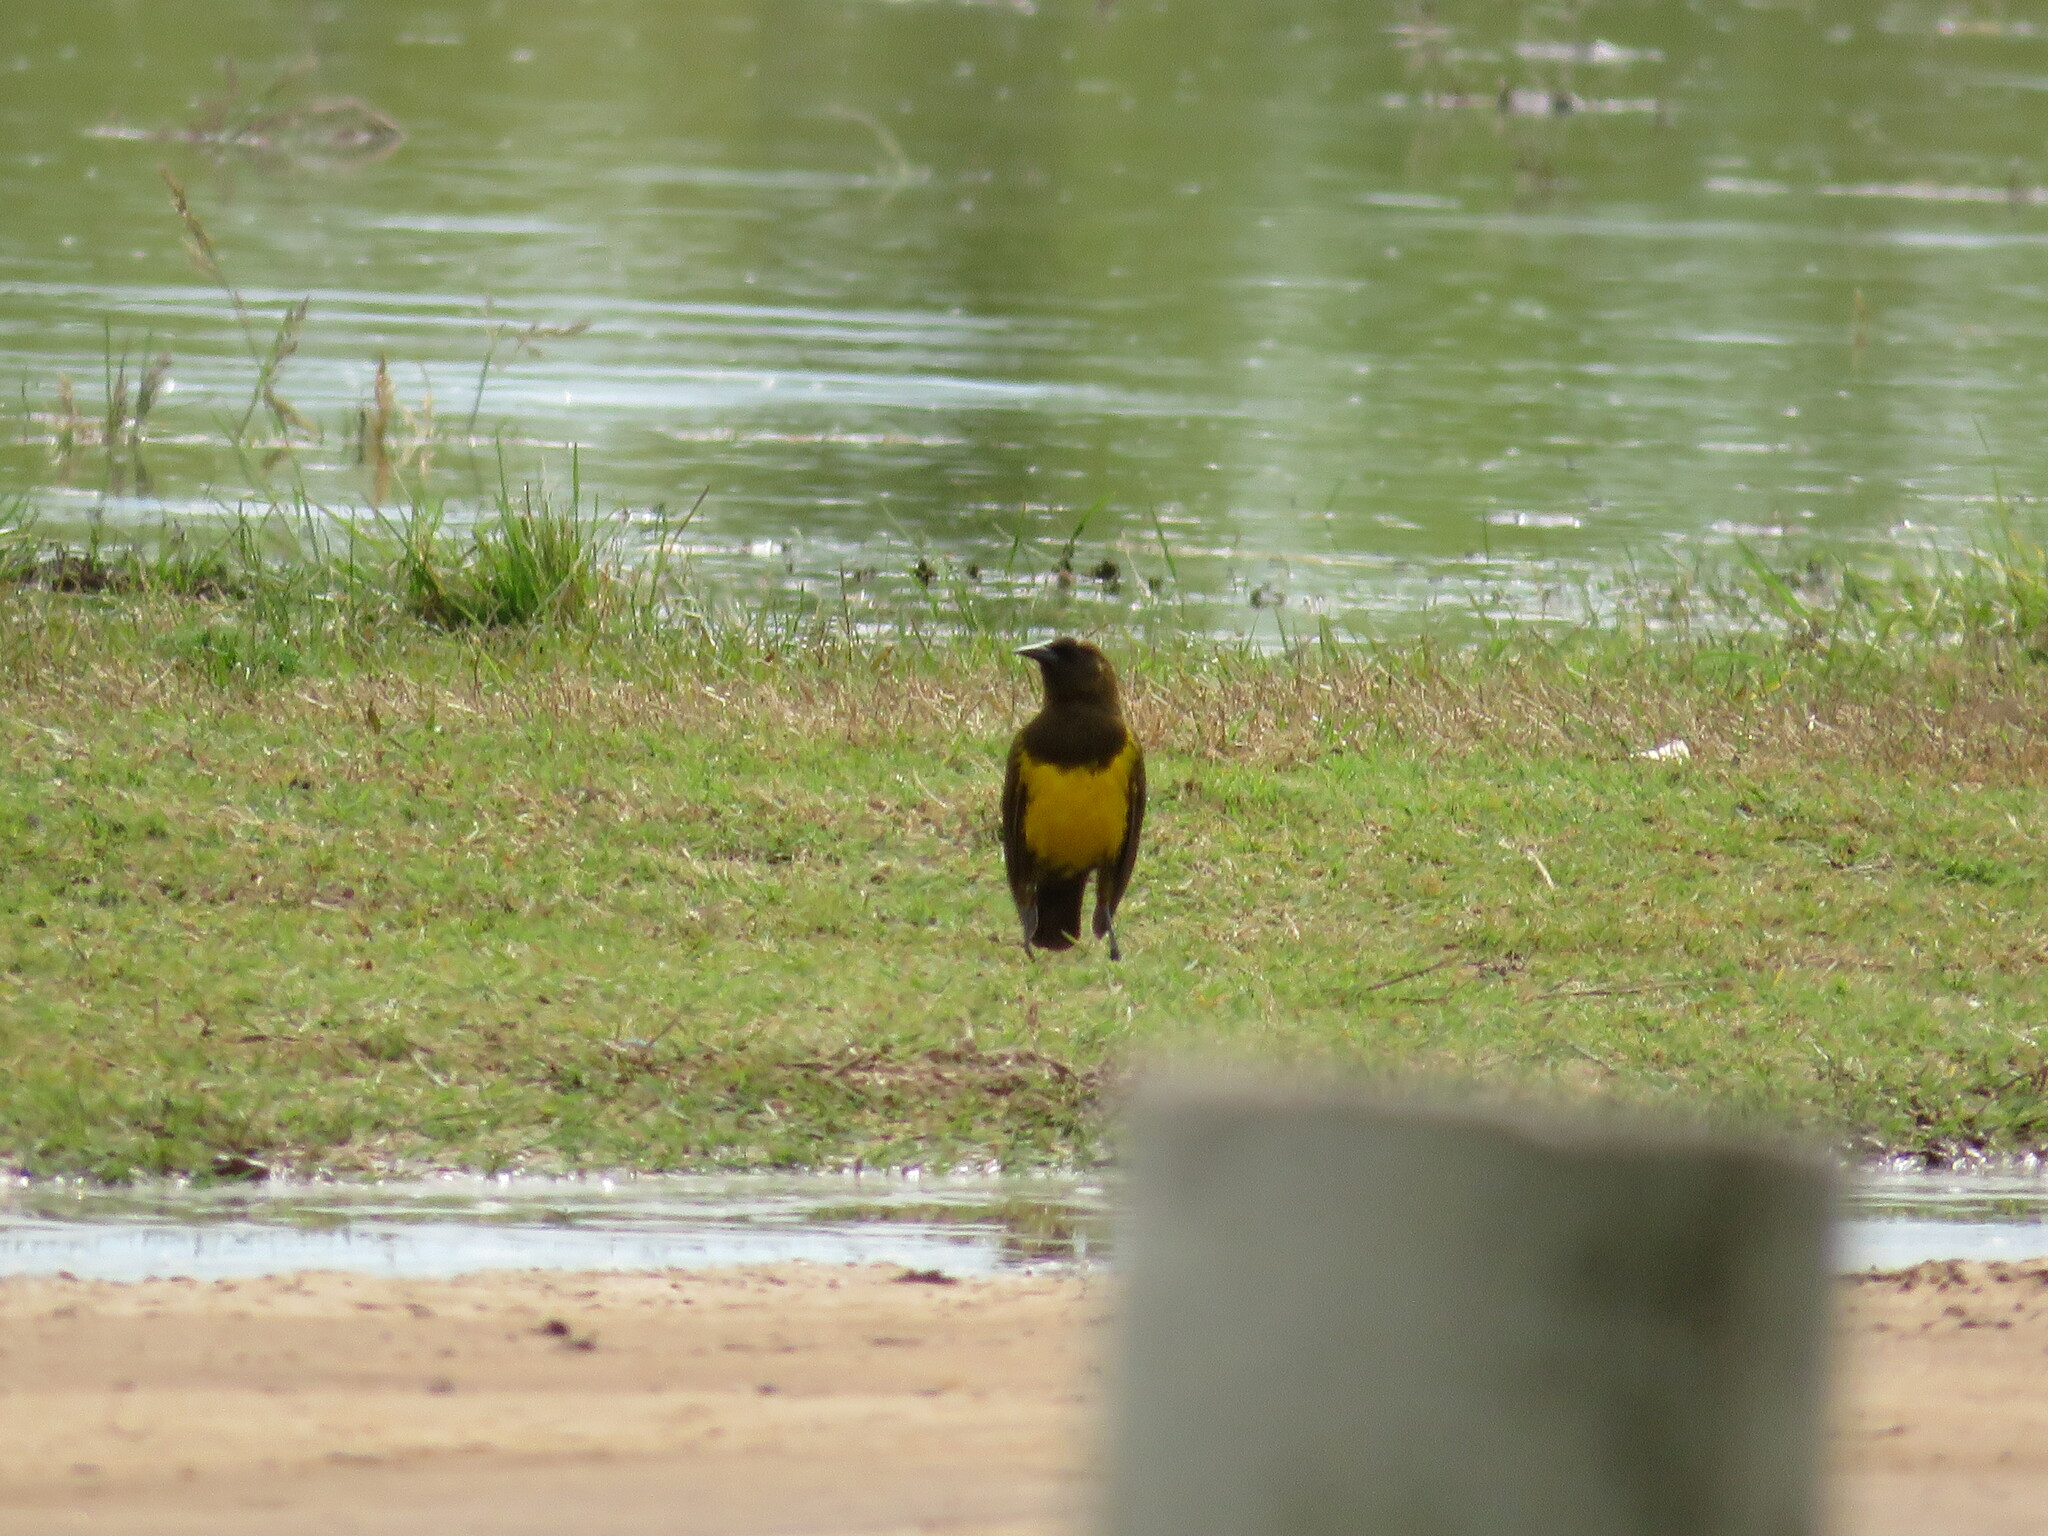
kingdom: Animalia
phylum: Chordata
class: Aves
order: Passeriformes
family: Icteridae
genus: Pseudoleistes
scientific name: Pseudoleistes virescens
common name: Brown-and-yellow marshbird
